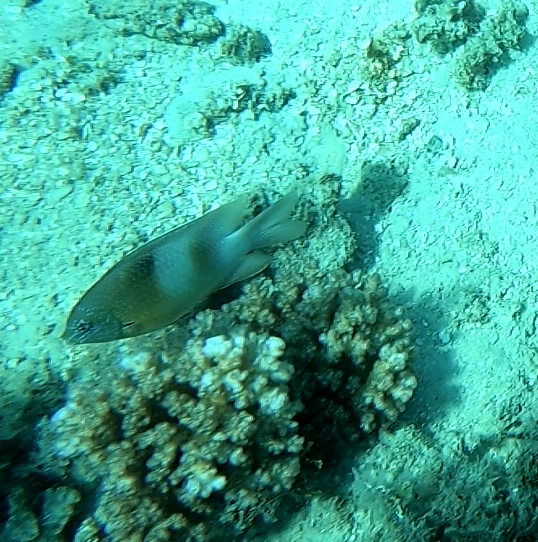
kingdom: Animalia
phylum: Chordata
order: Perciformes
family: Pomacentridae
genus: Dischistodus
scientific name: Dischistodus prosopotaenia
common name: Honey-head damsel
